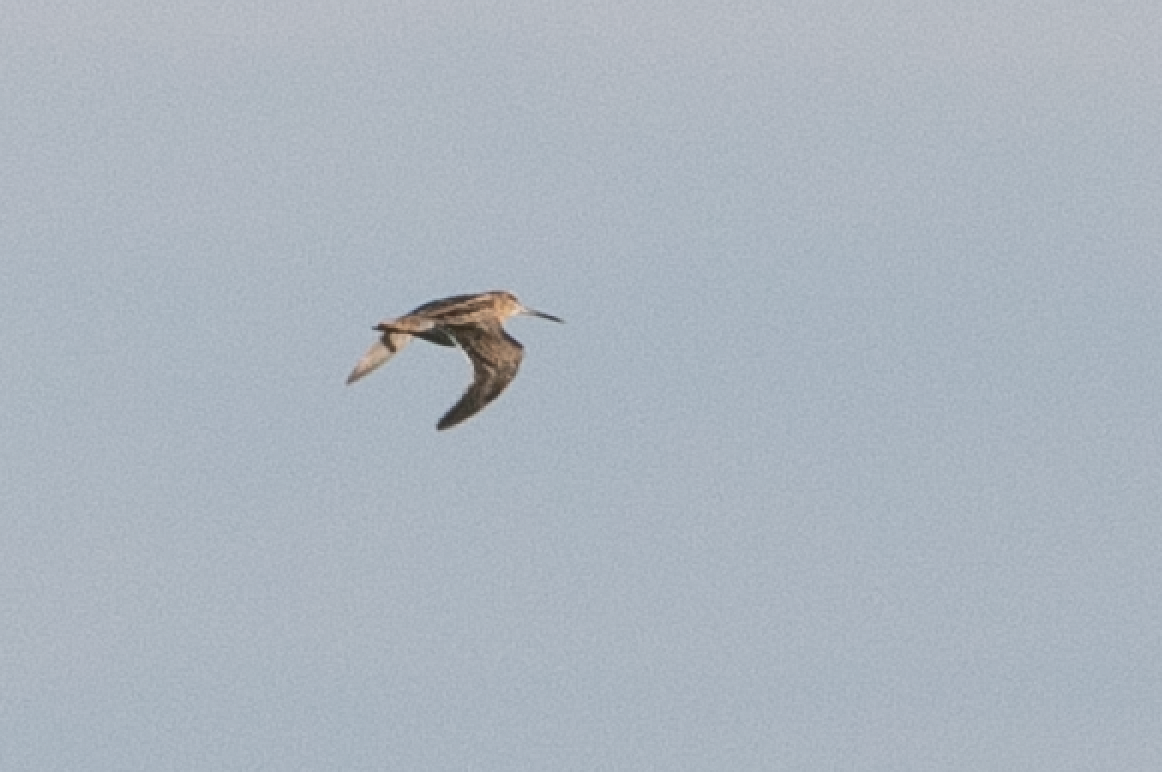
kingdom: Animalia
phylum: Chordata
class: Aves
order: Charadriiformes
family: Scolopacidae
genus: Gallinago
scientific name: Gallinago gallinago
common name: Common snipe
